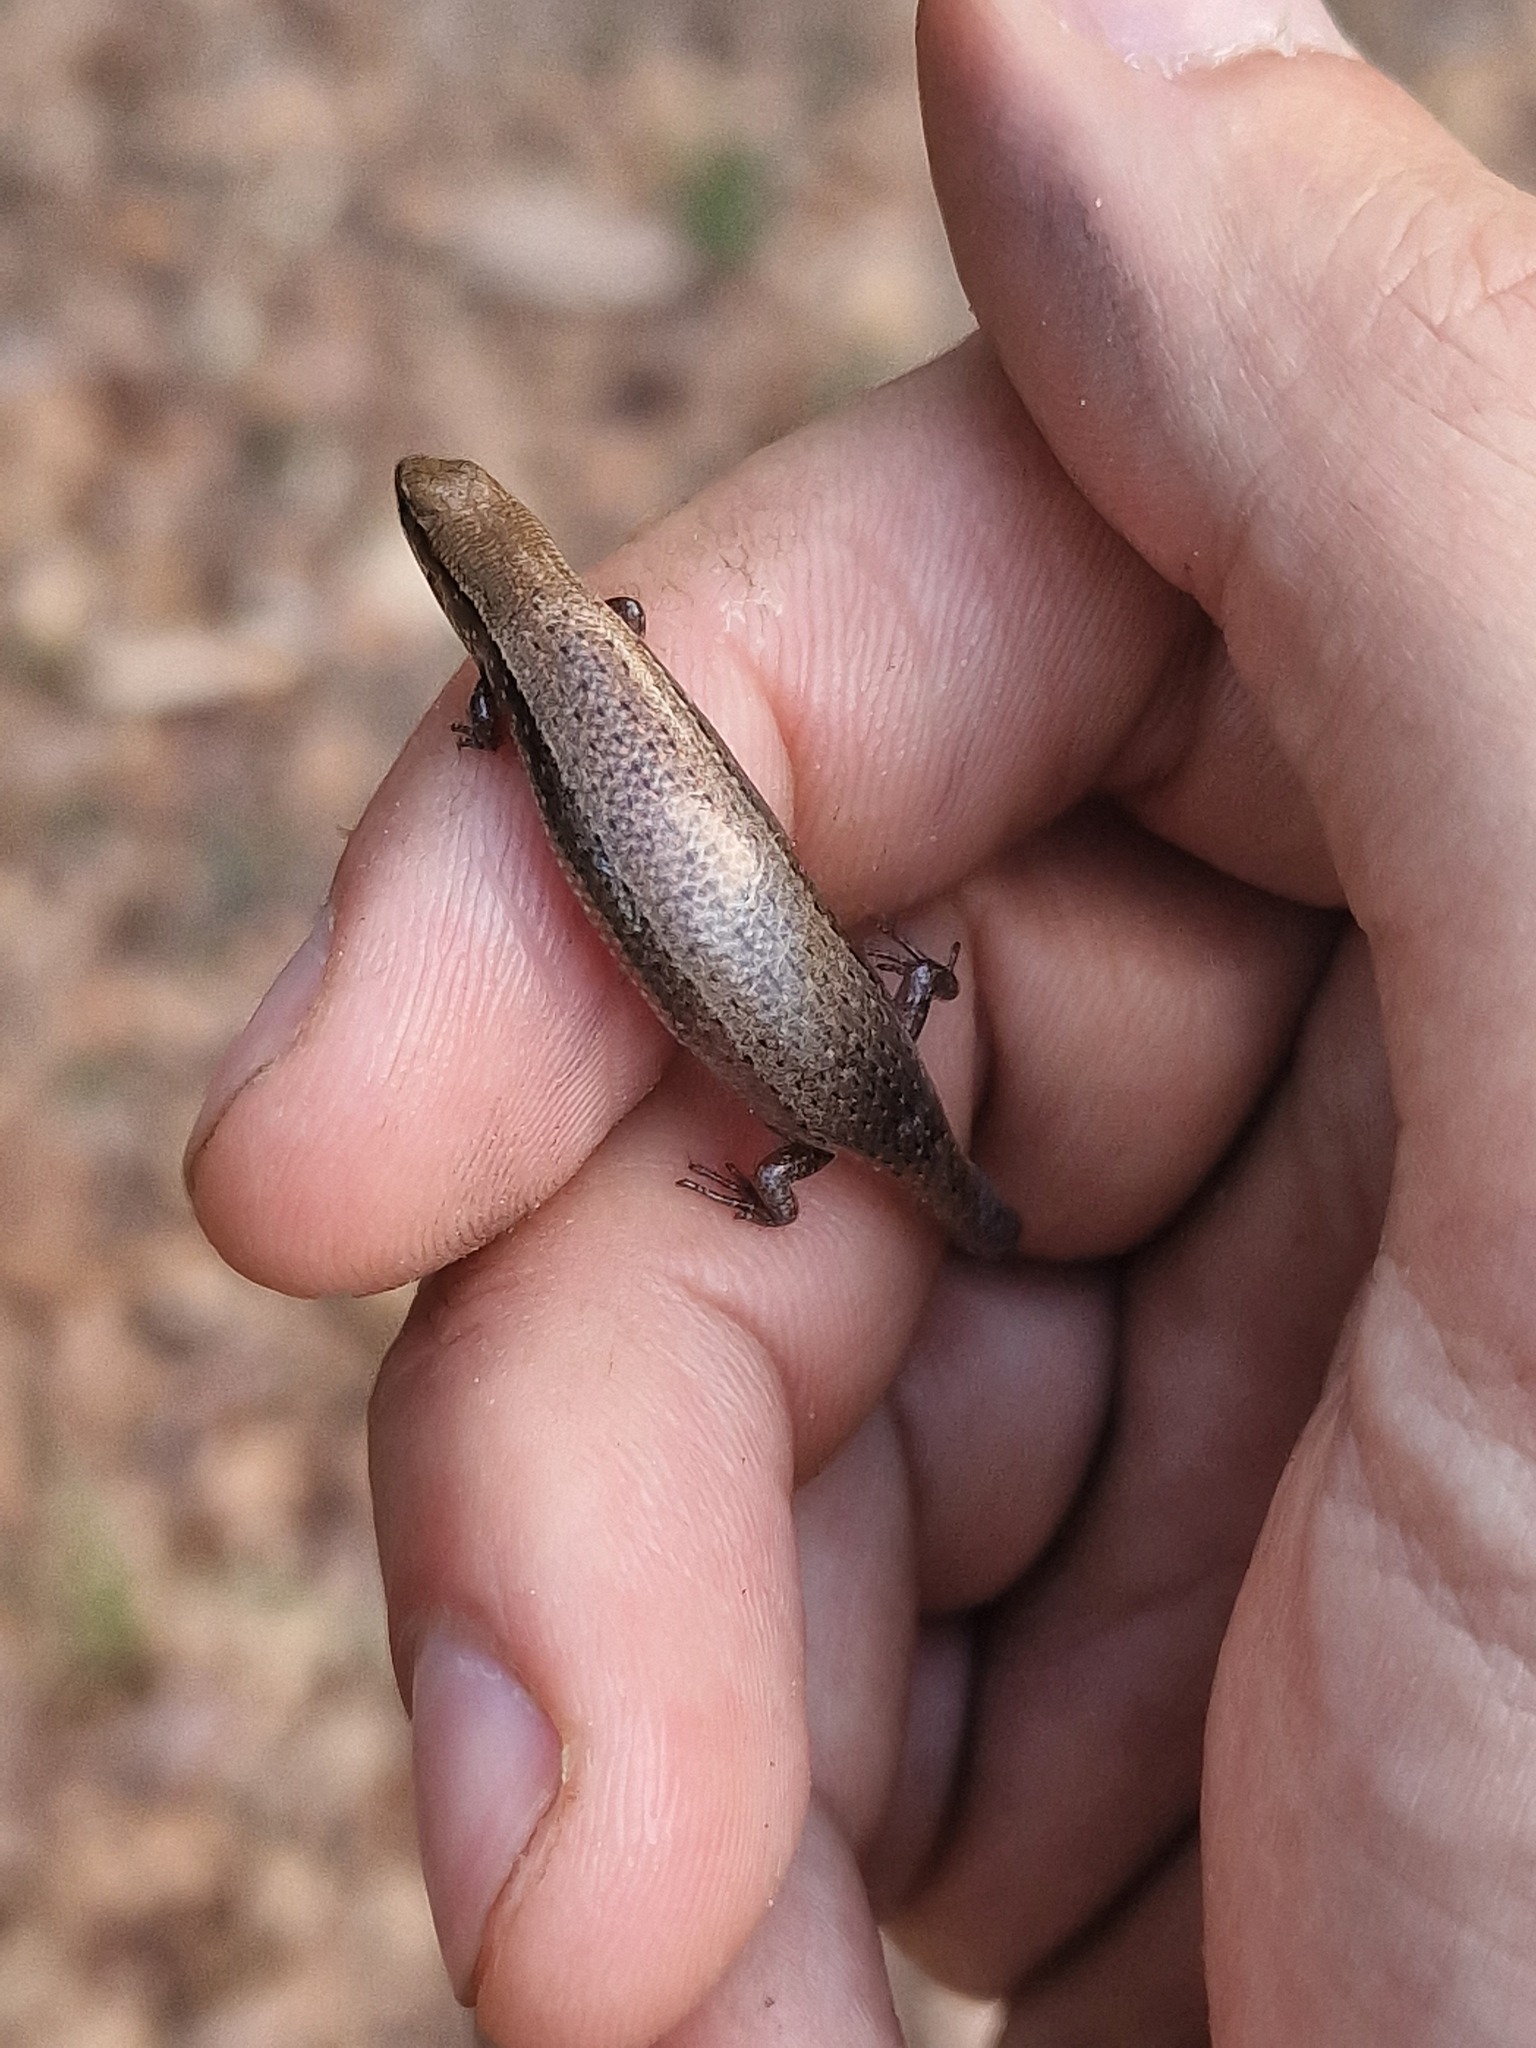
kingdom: Animalia
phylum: Chordata
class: Squamata
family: Scincidae
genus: Panaspis
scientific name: Panaspis maculicollis
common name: Spotted-neck snake-eyed skink
